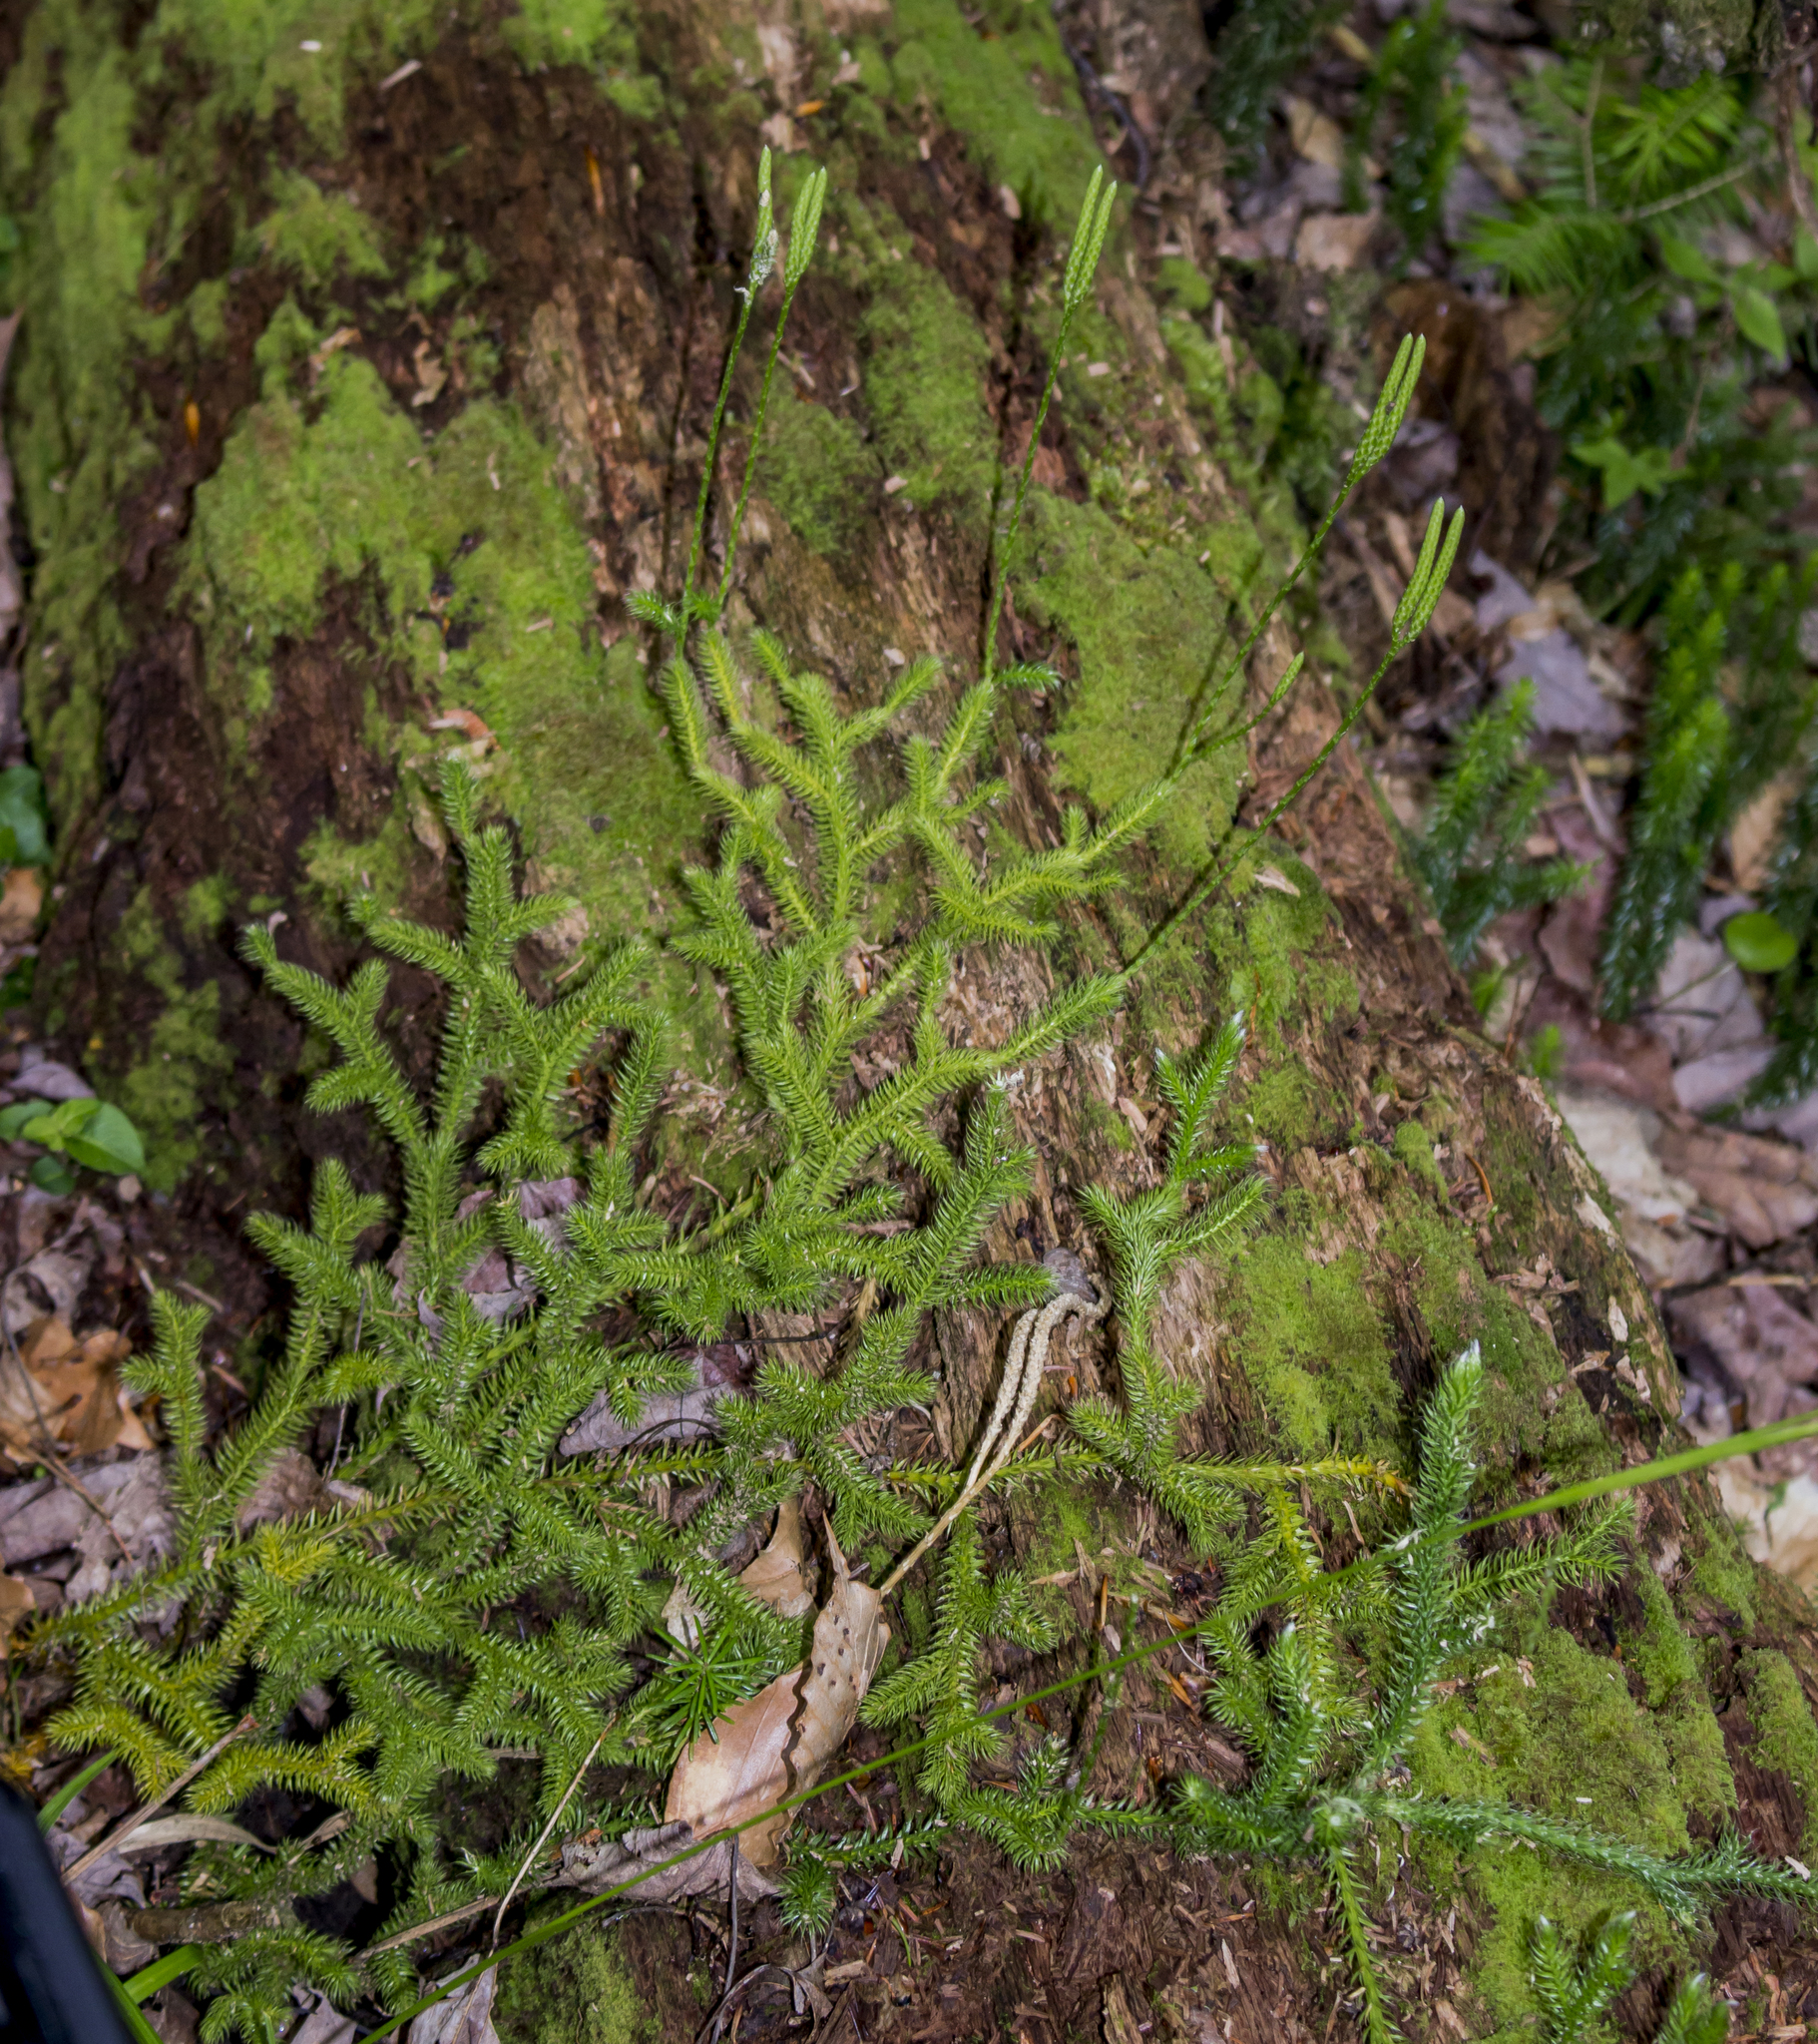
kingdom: Plantae
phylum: Tracheophyta
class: Lycopodiopsida
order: Lycopodiales
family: Lycopodiaceae
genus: Lycopodium
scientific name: Lycopodium clavatum
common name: Stag's-horn clubmoss
